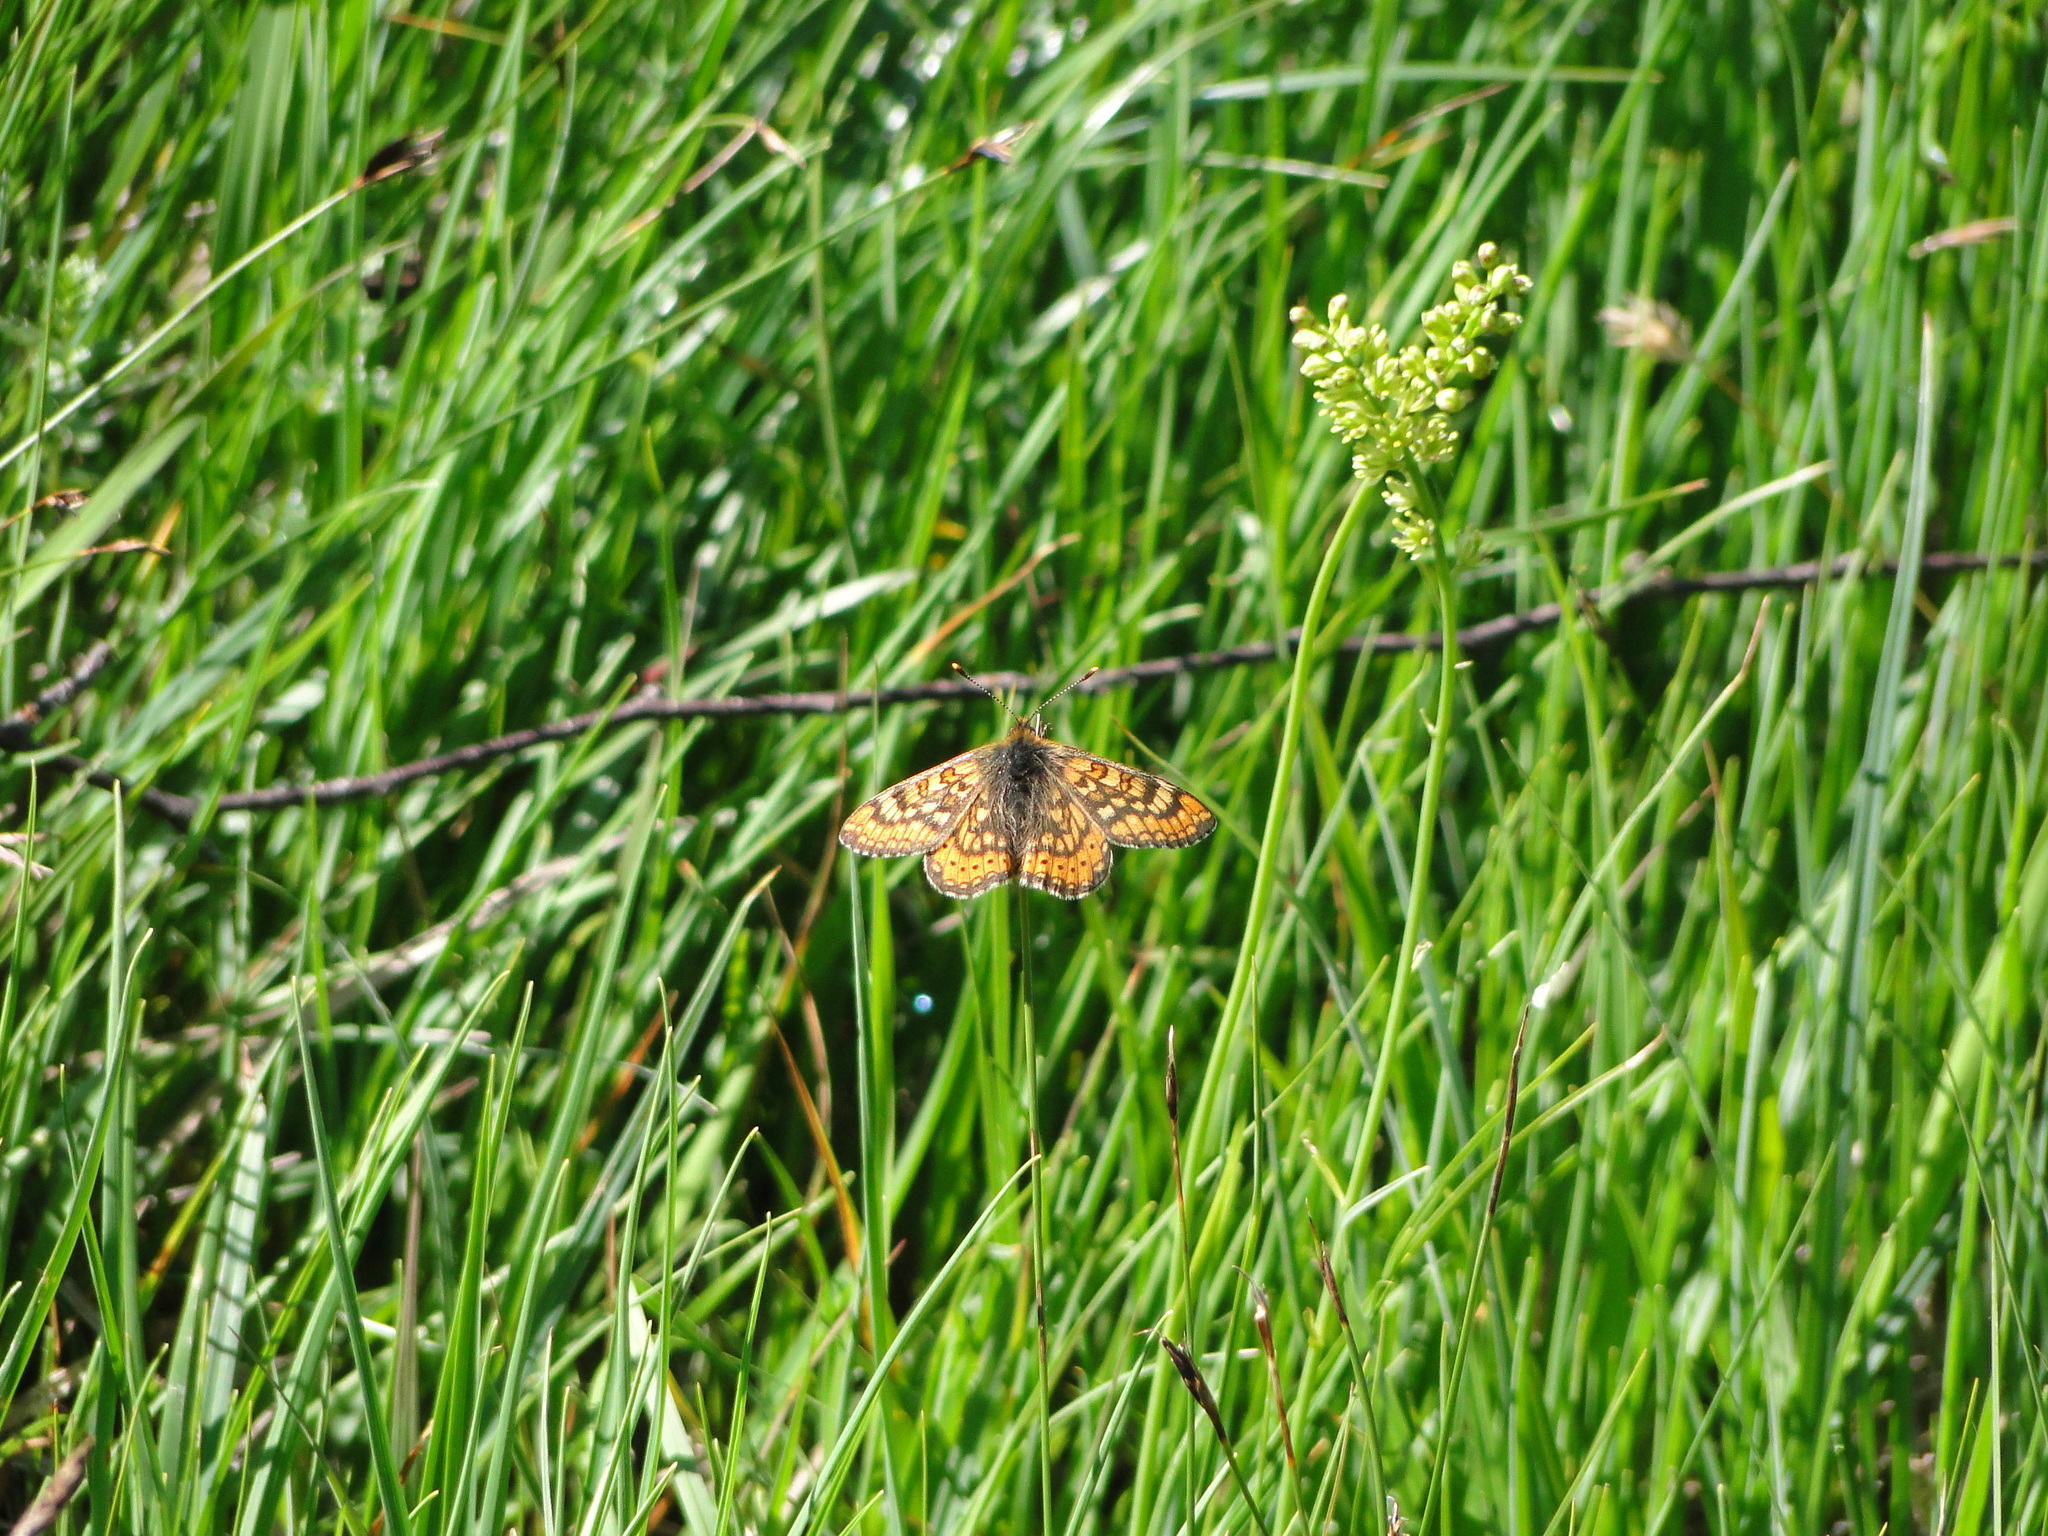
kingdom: Animalia
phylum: Arthropoda
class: Insecta
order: Lepidoptera
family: Nymphalidae
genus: Euphydryas
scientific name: Euphydryas aurinia
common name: Marsh fritillary
